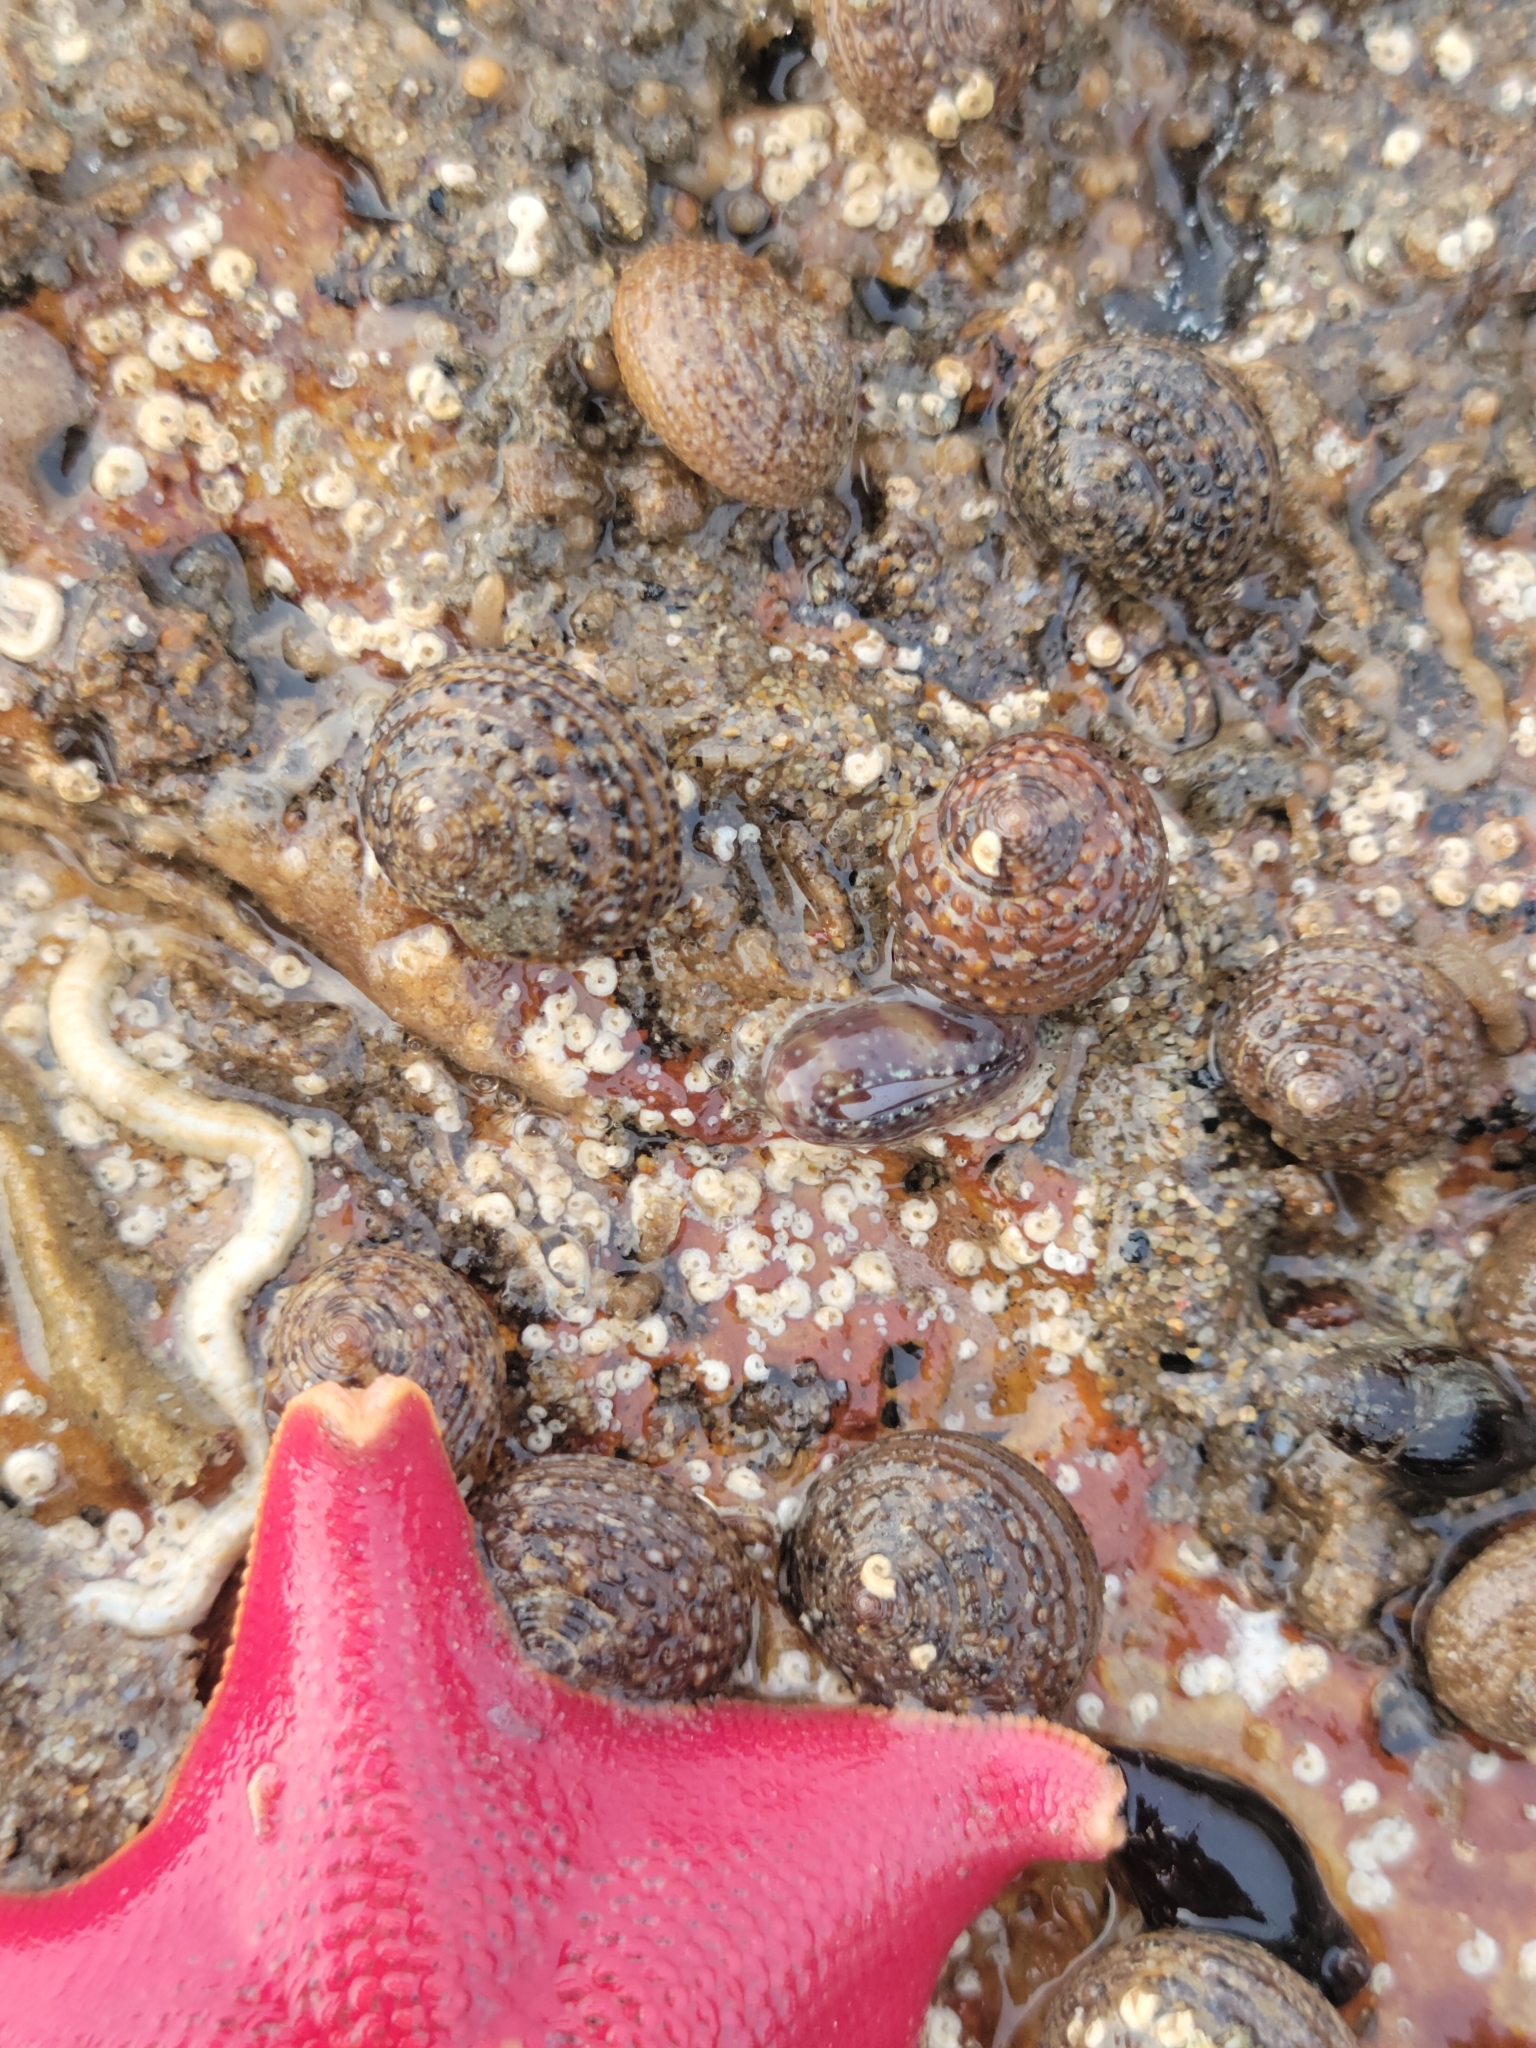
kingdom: Animalia
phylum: Mollusca
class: Gastropoda
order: Trochida
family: Tegulidae
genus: Tegula
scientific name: Tegula eiseni
